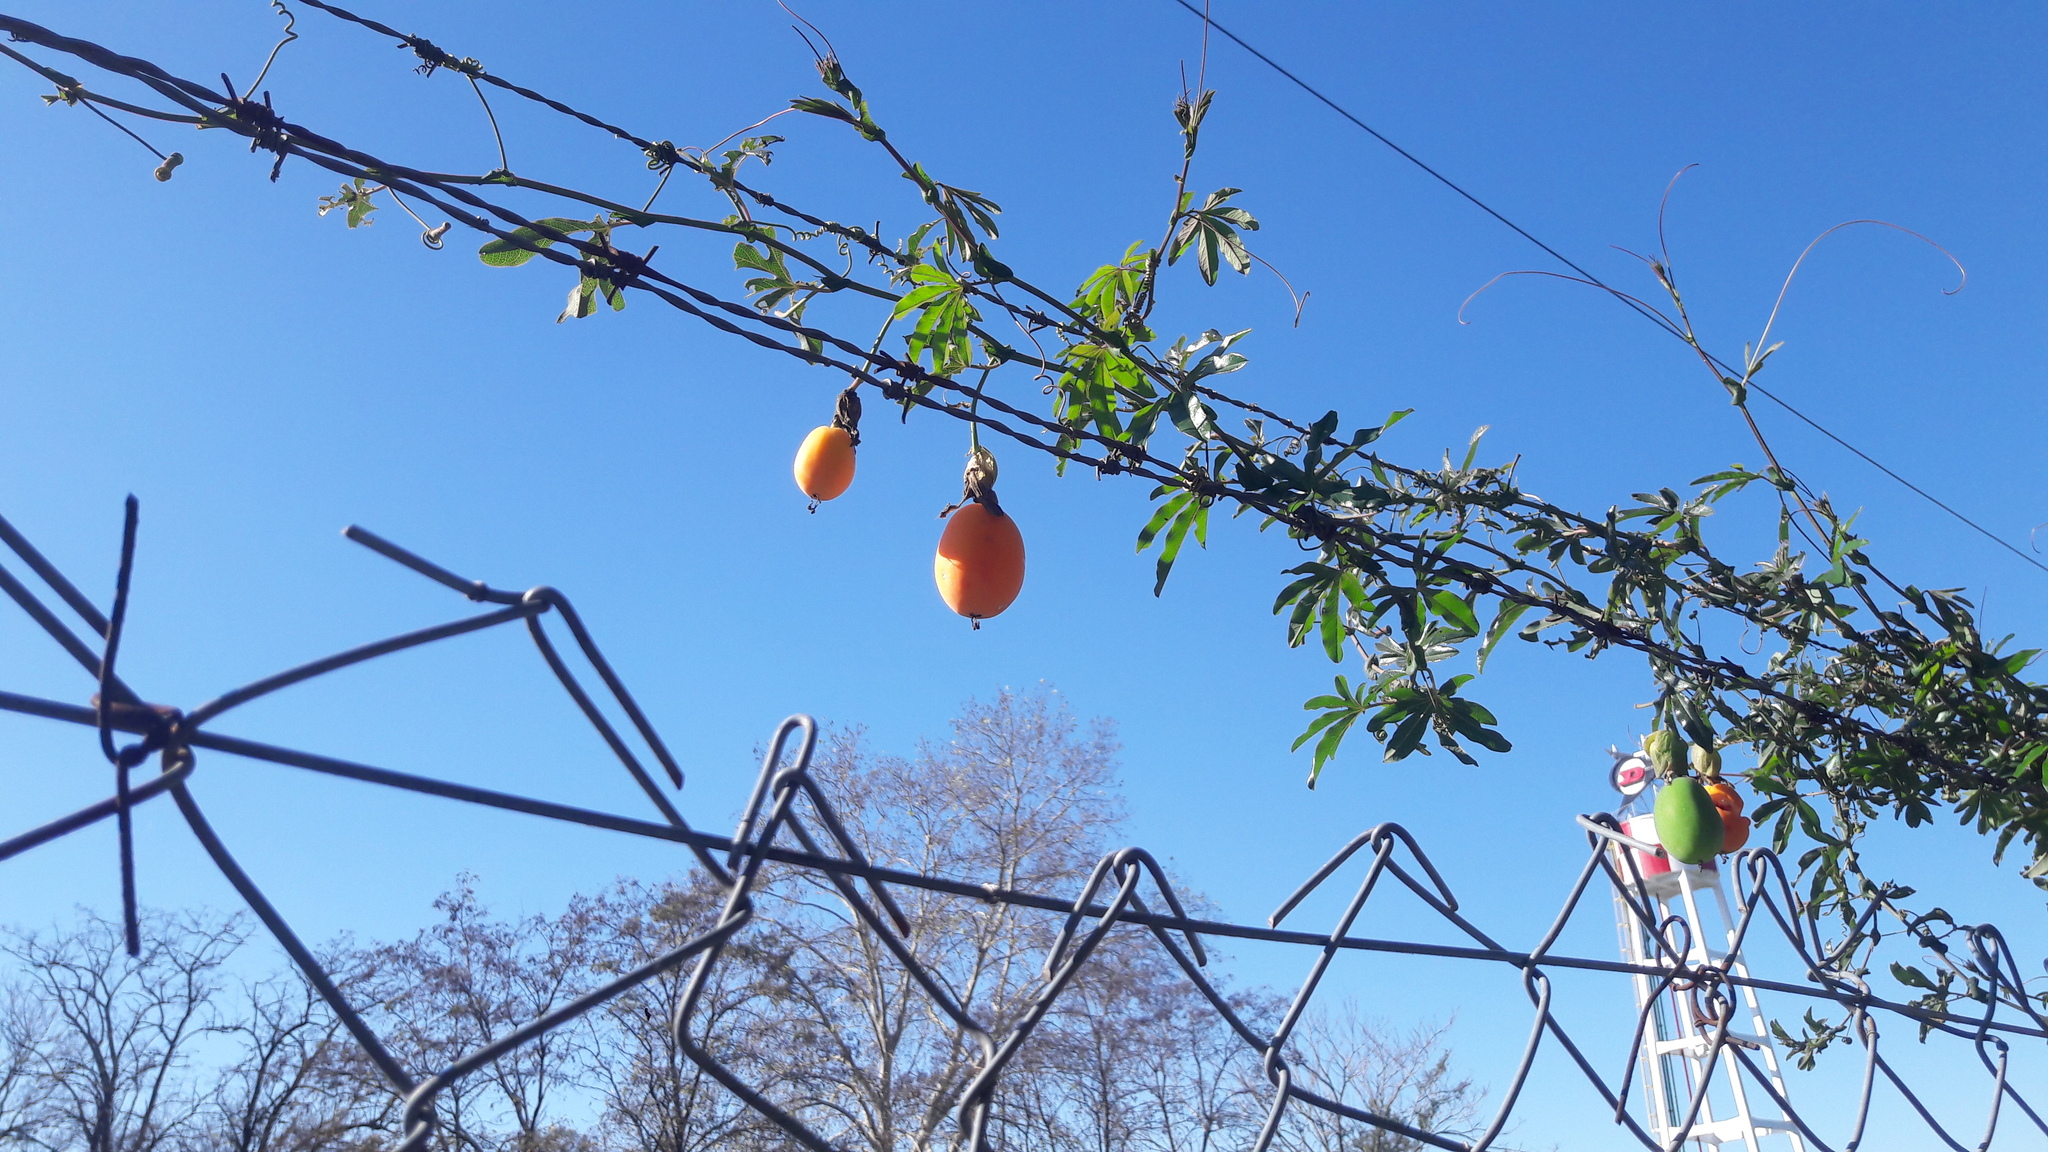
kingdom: Plantae
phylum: Tracheophyta
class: Magnoliopsida
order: Malpighiales
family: Passifloraceae
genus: Passiflora
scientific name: Passiflora caerulea
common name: Blue passionflower
